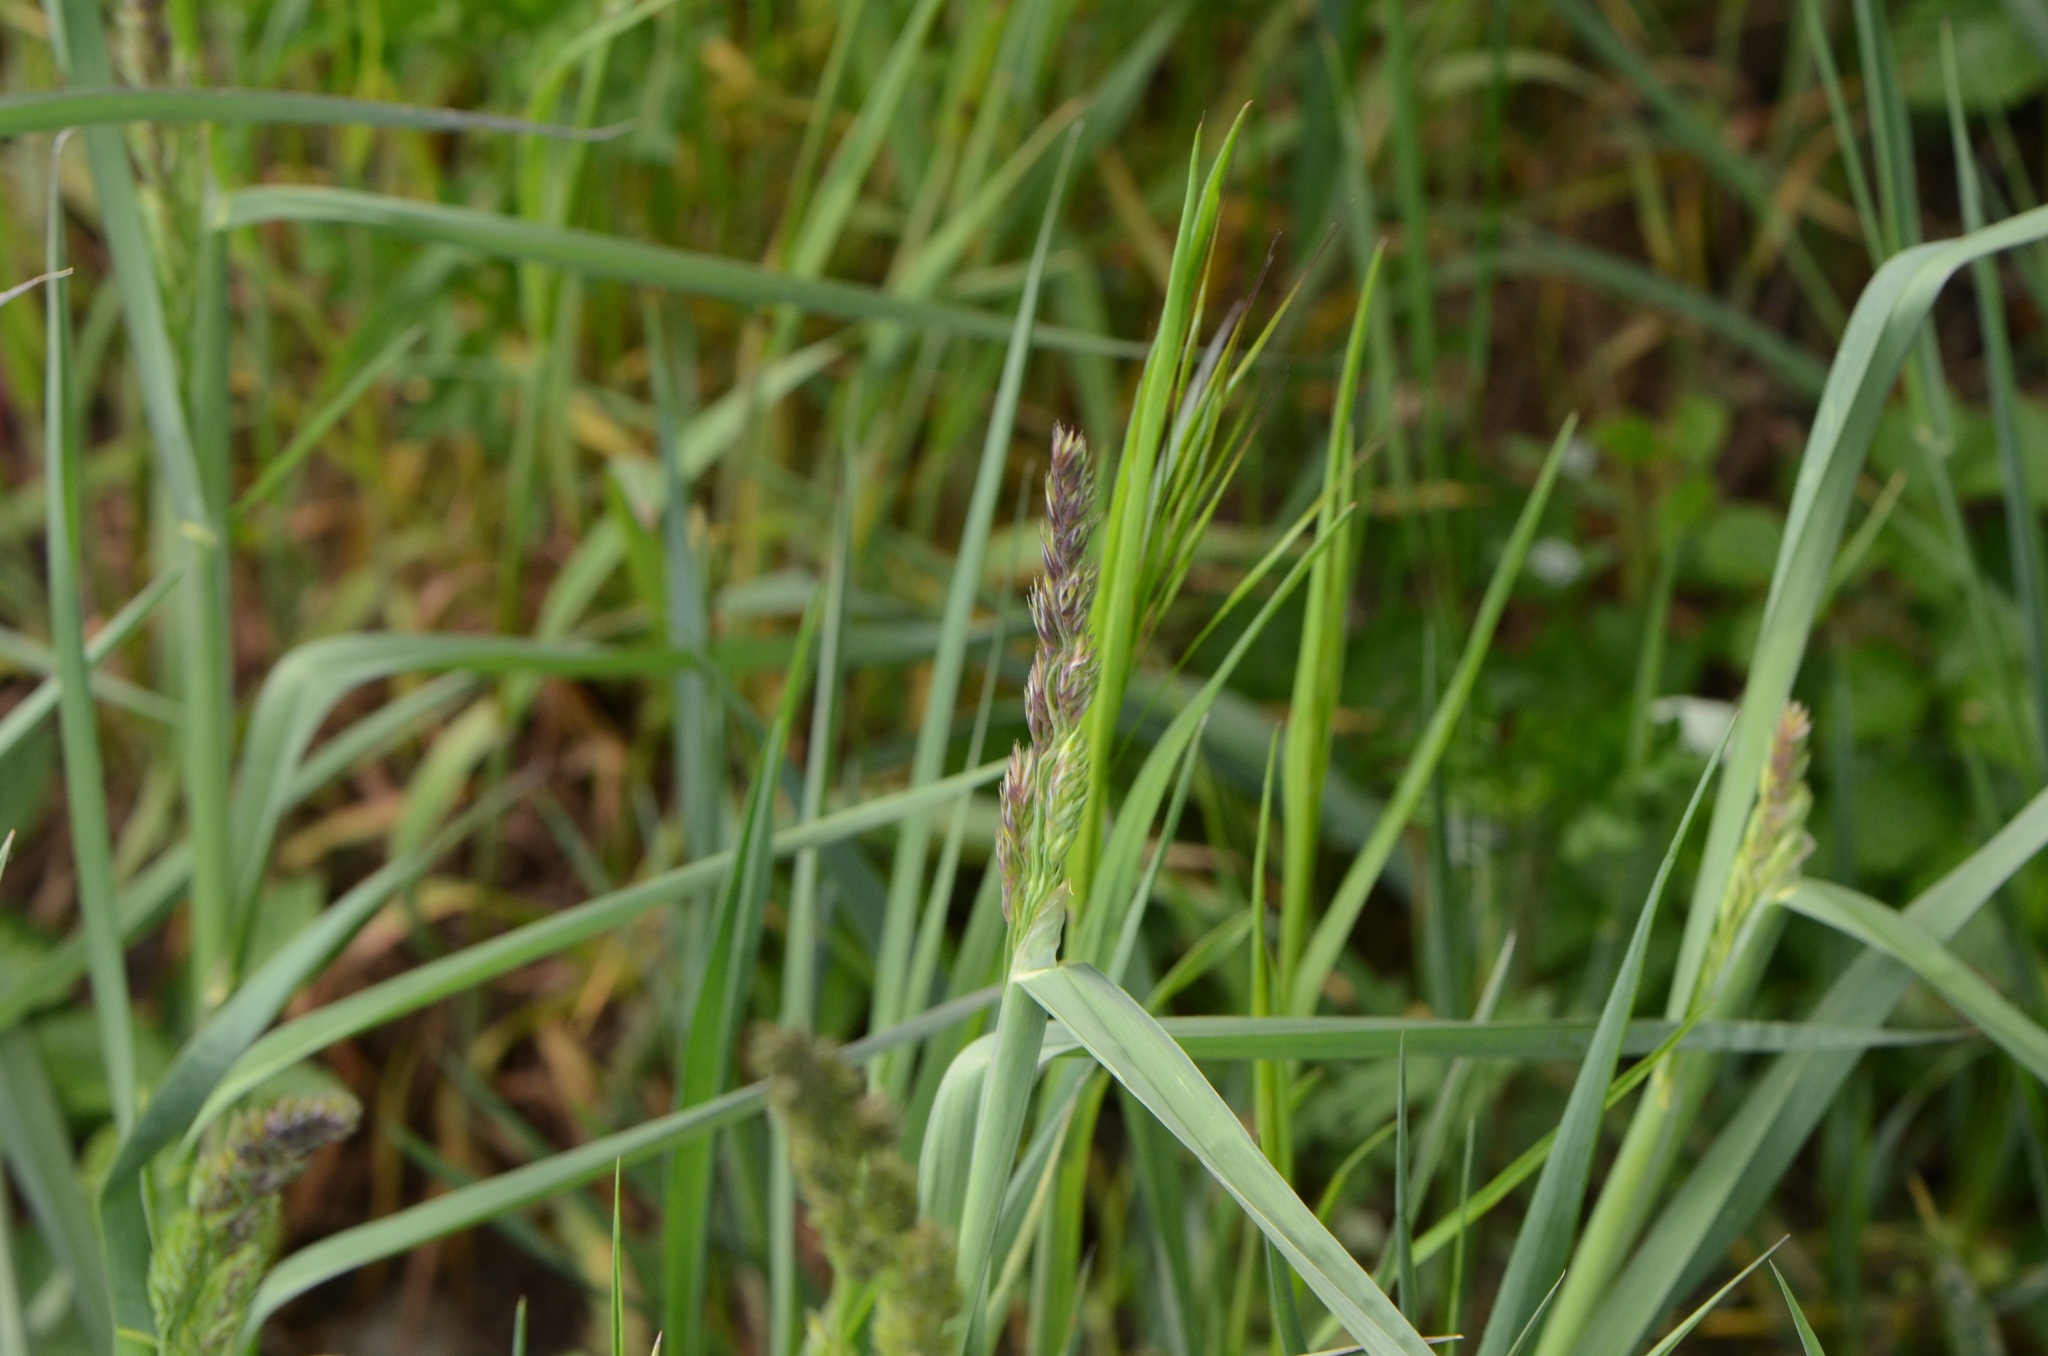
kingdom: Plantae
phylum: Tracheophyta
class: Liliopsida
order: Poales
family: Poaceae
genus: Dactylis
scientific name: Dactylis glomerata
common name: Orchardgrass
